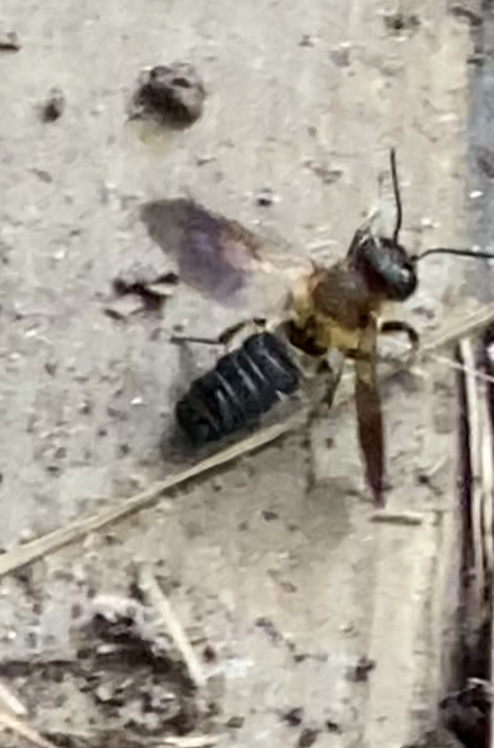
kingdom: Animalia
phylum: Arthropoda
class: Insecta
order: Hymenoptera
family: Megachilidae
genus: Megachile
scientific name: Megachile sculpturalis
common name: Sculptured resin bee
